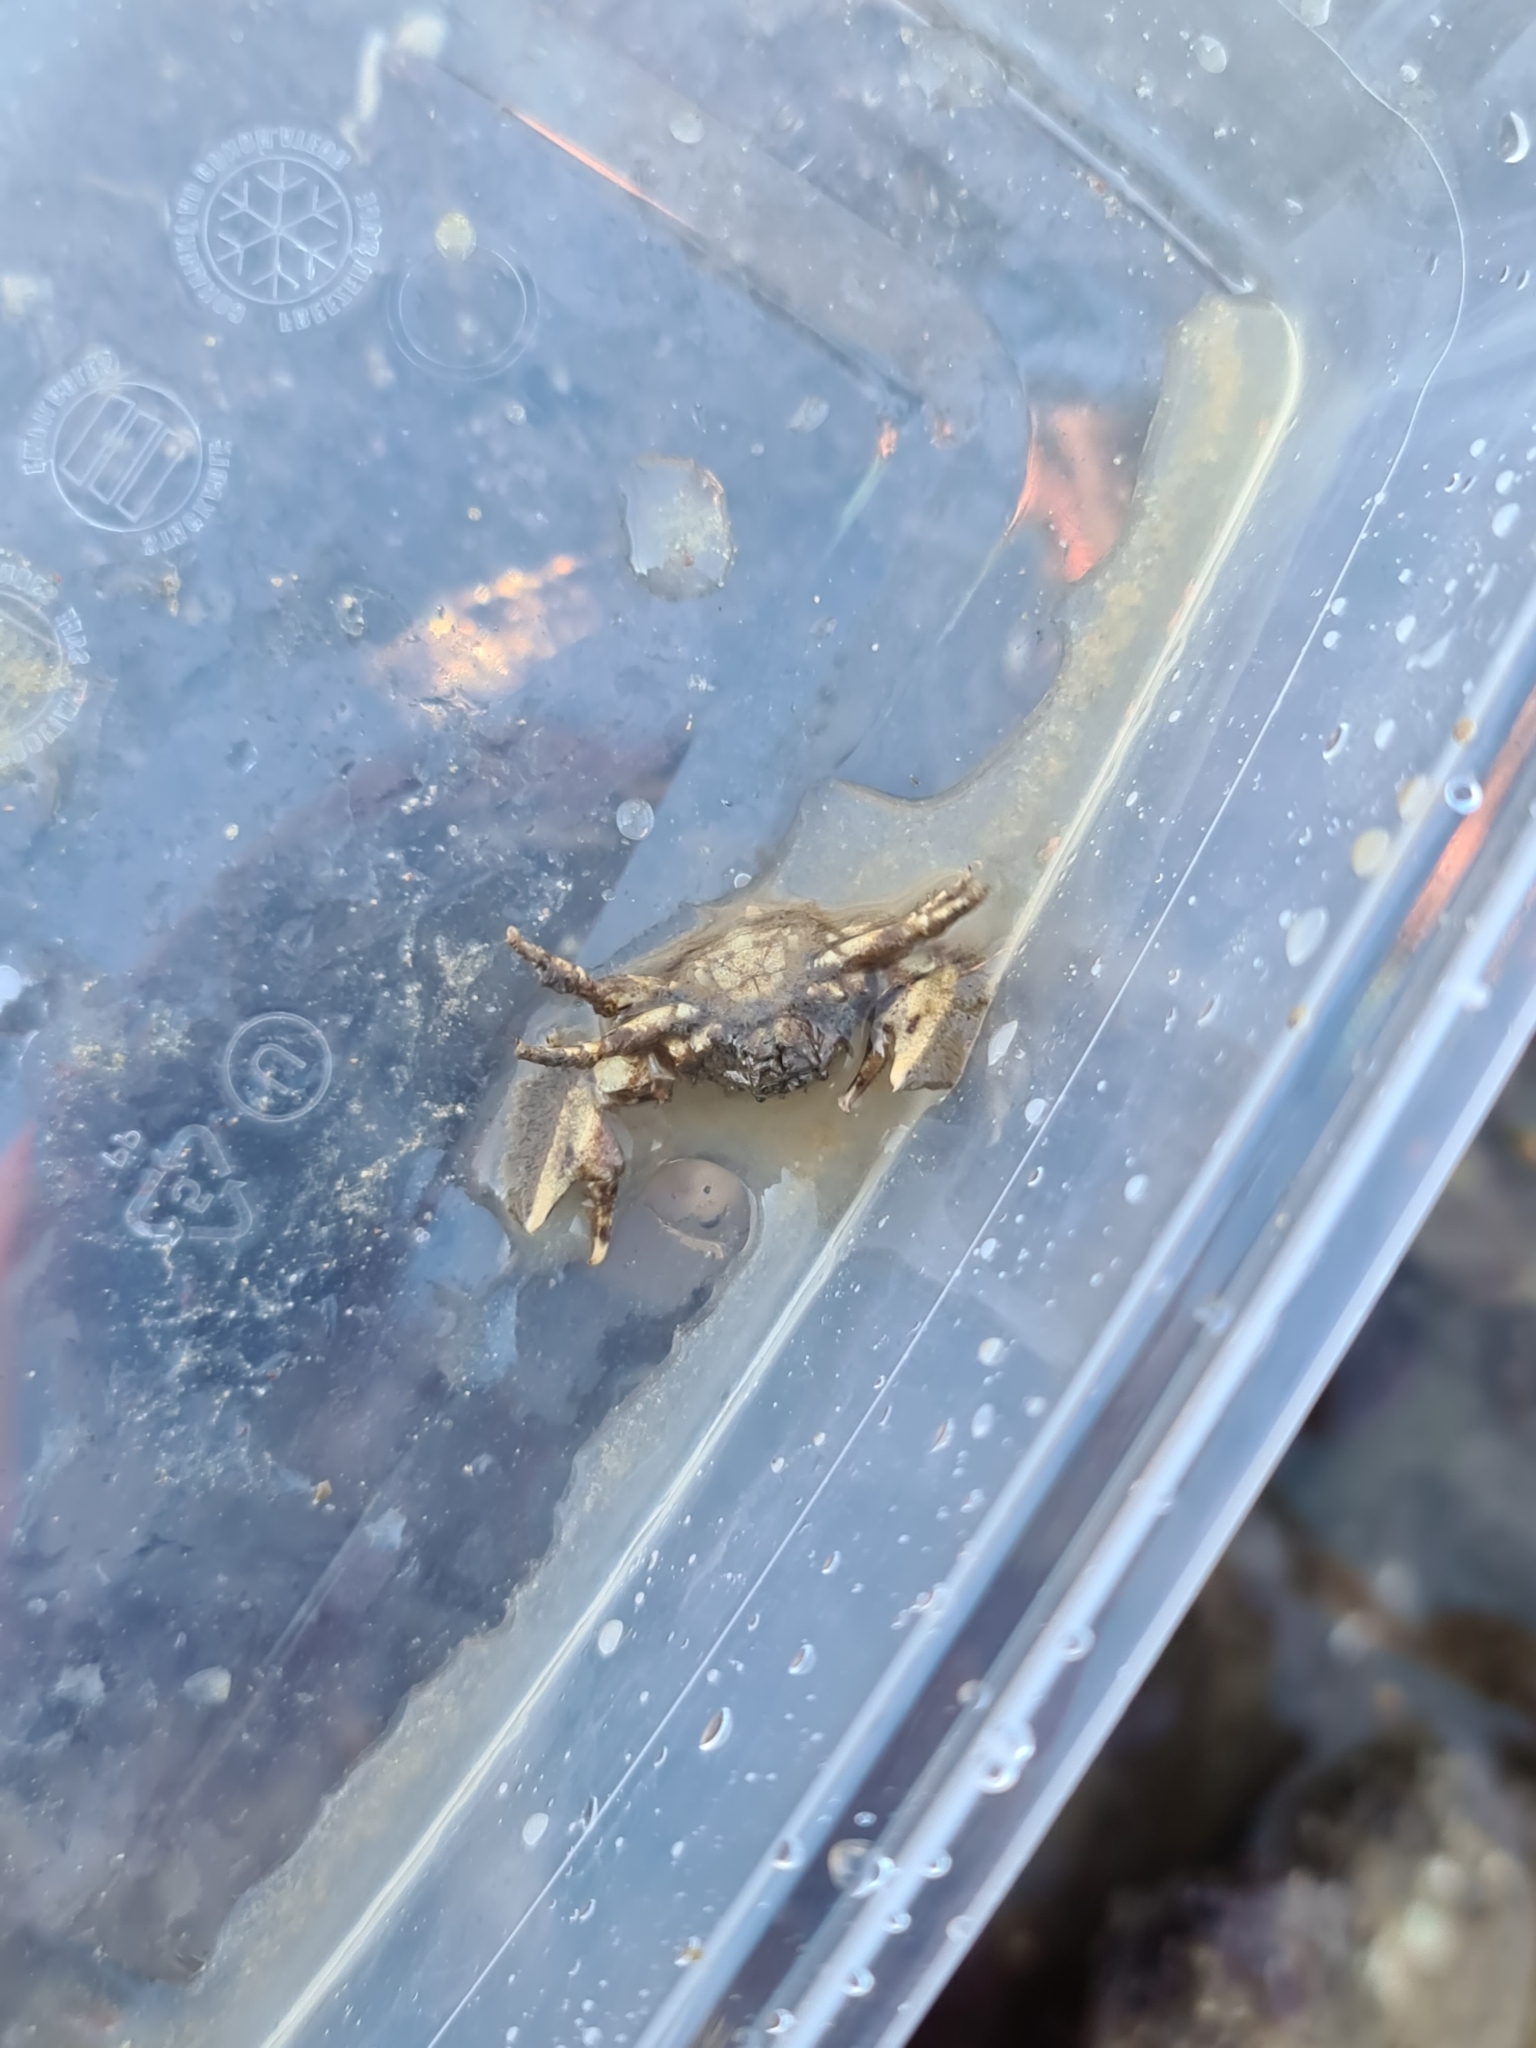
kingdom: Animalia
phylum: Arthropoda
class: Malacostraca
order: Decapoda
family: Porcellanidae
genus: Porcellana
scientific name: Porcellana platycheles
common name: Porcelain crab
